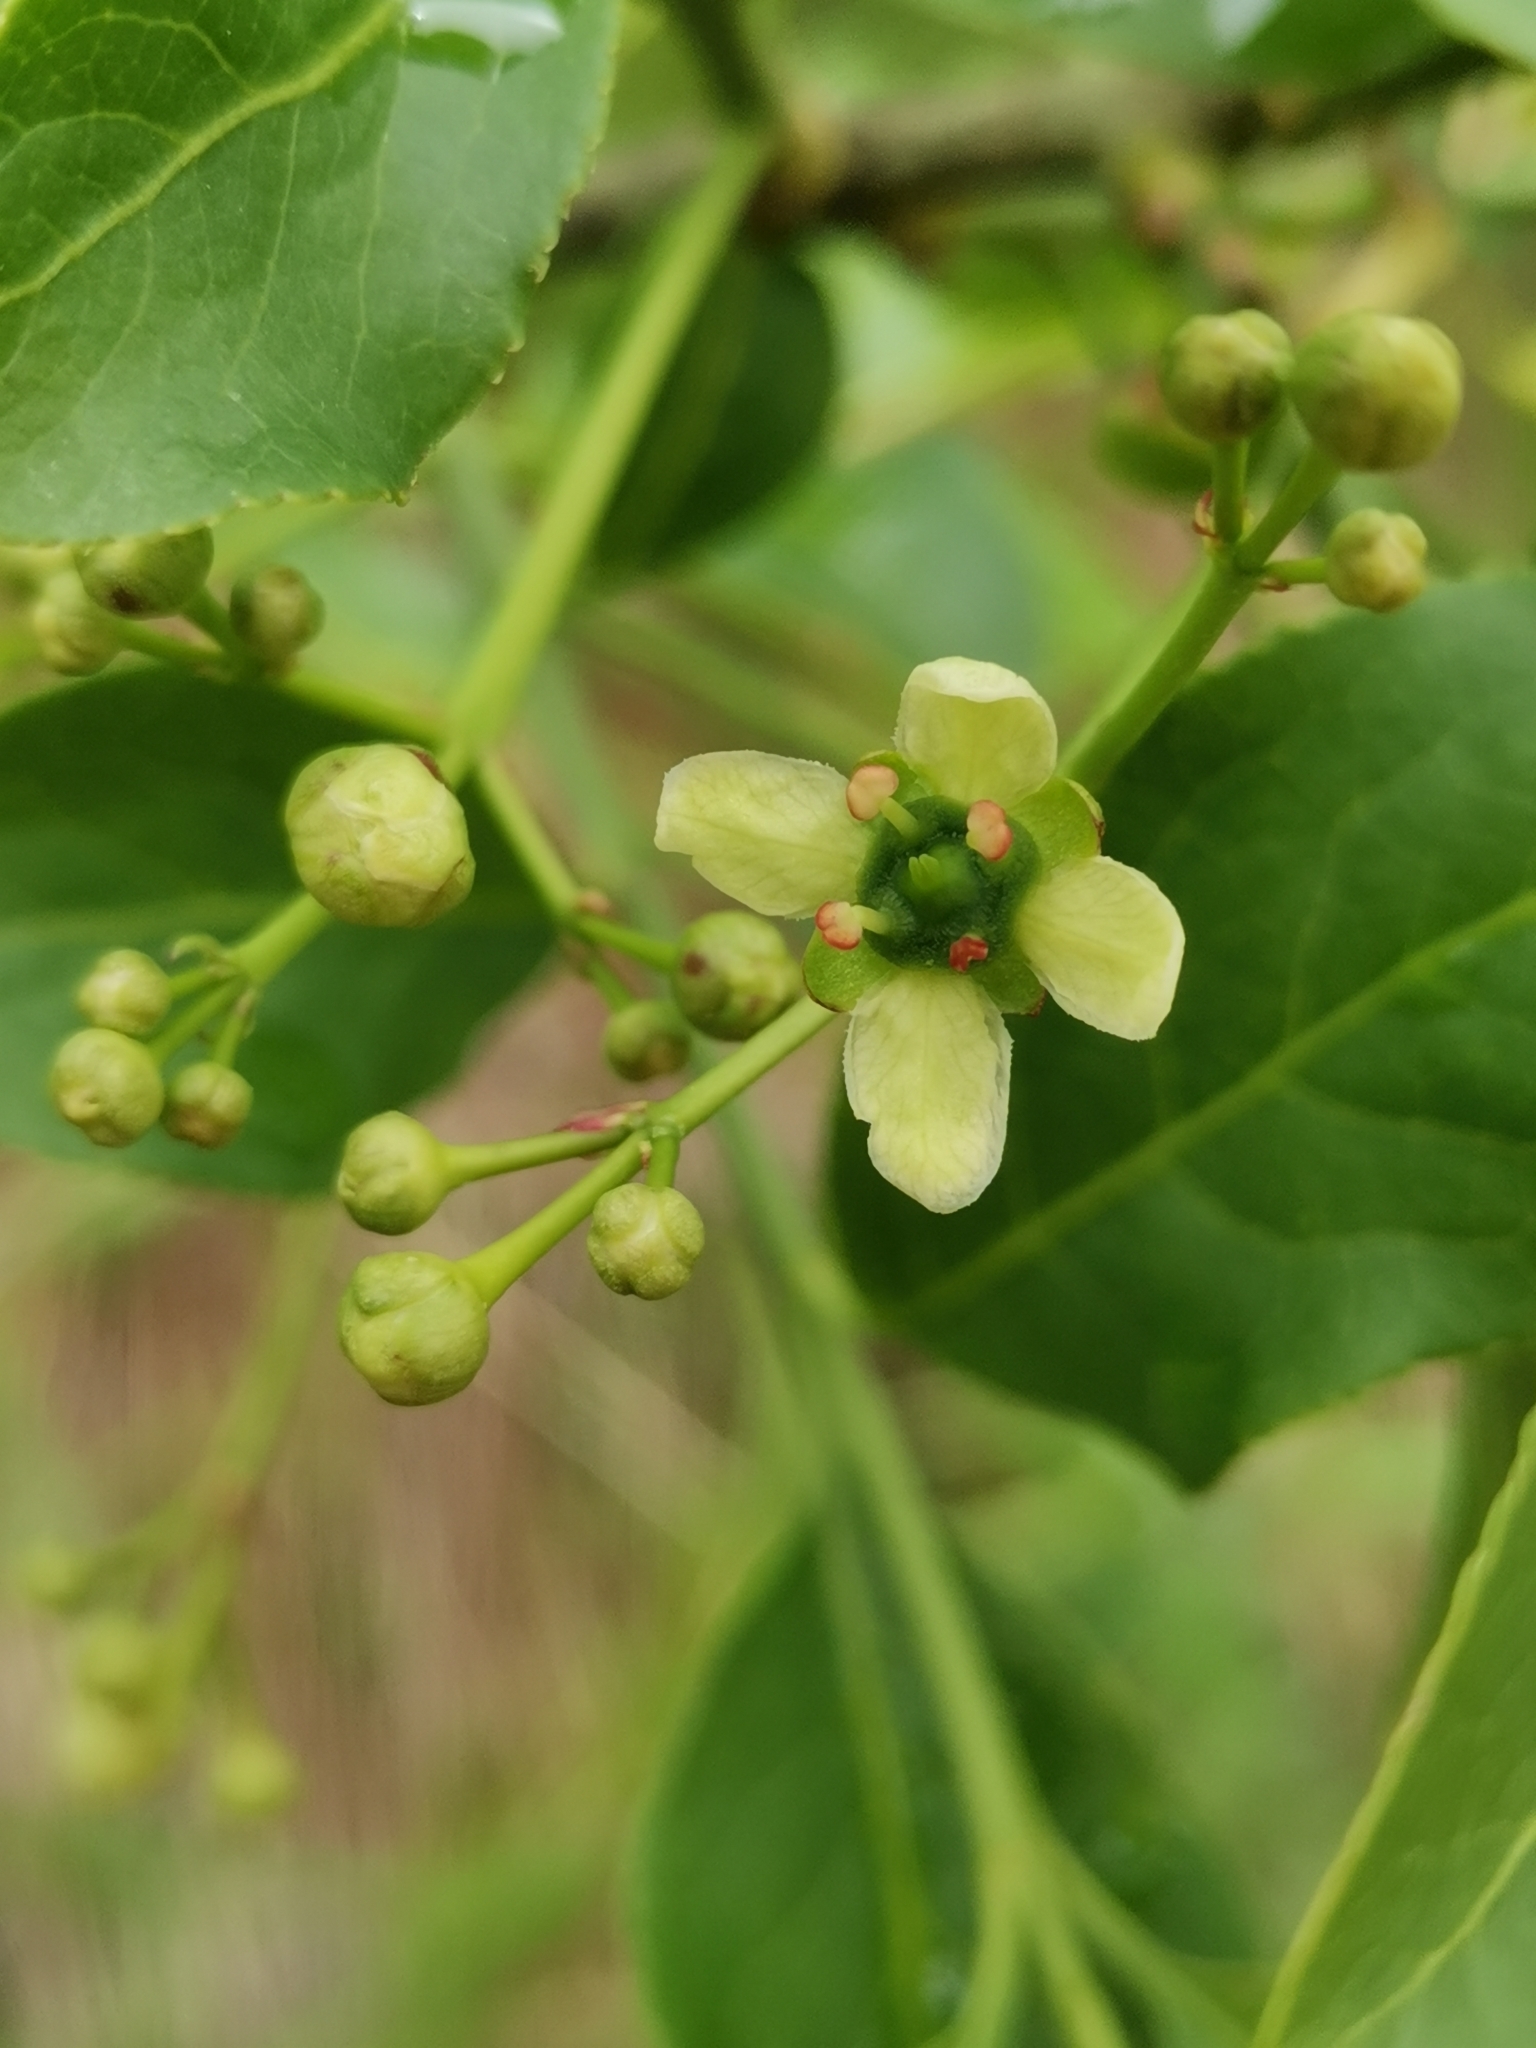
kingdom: Plantae
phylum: Tracheophyta
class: Magnoliopsida
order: Celastrales
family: Celastraceae
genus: Euonymus
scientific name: Euonymus europaeus
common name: Spindle
